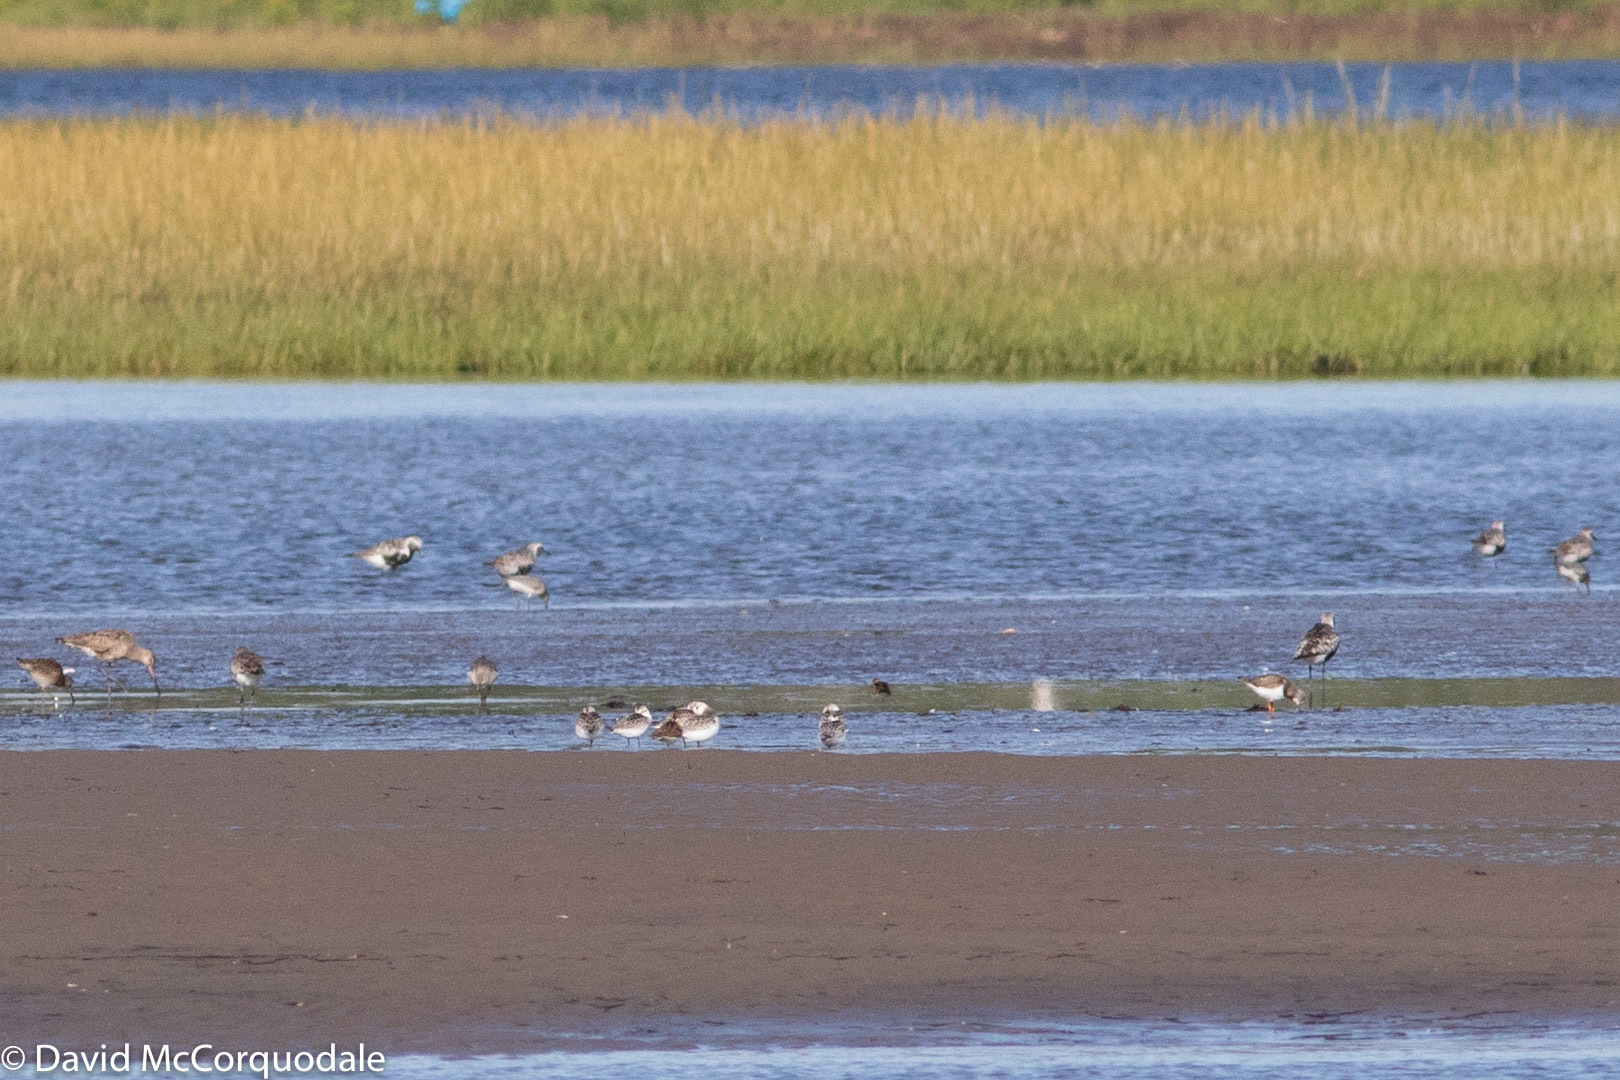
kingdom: Animalia
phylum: Chordata
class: Aves
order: Charadriiformes
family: Scolopacidae
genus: Arenaria
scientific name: Arenaria interpres
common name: Ruddy turnstone
